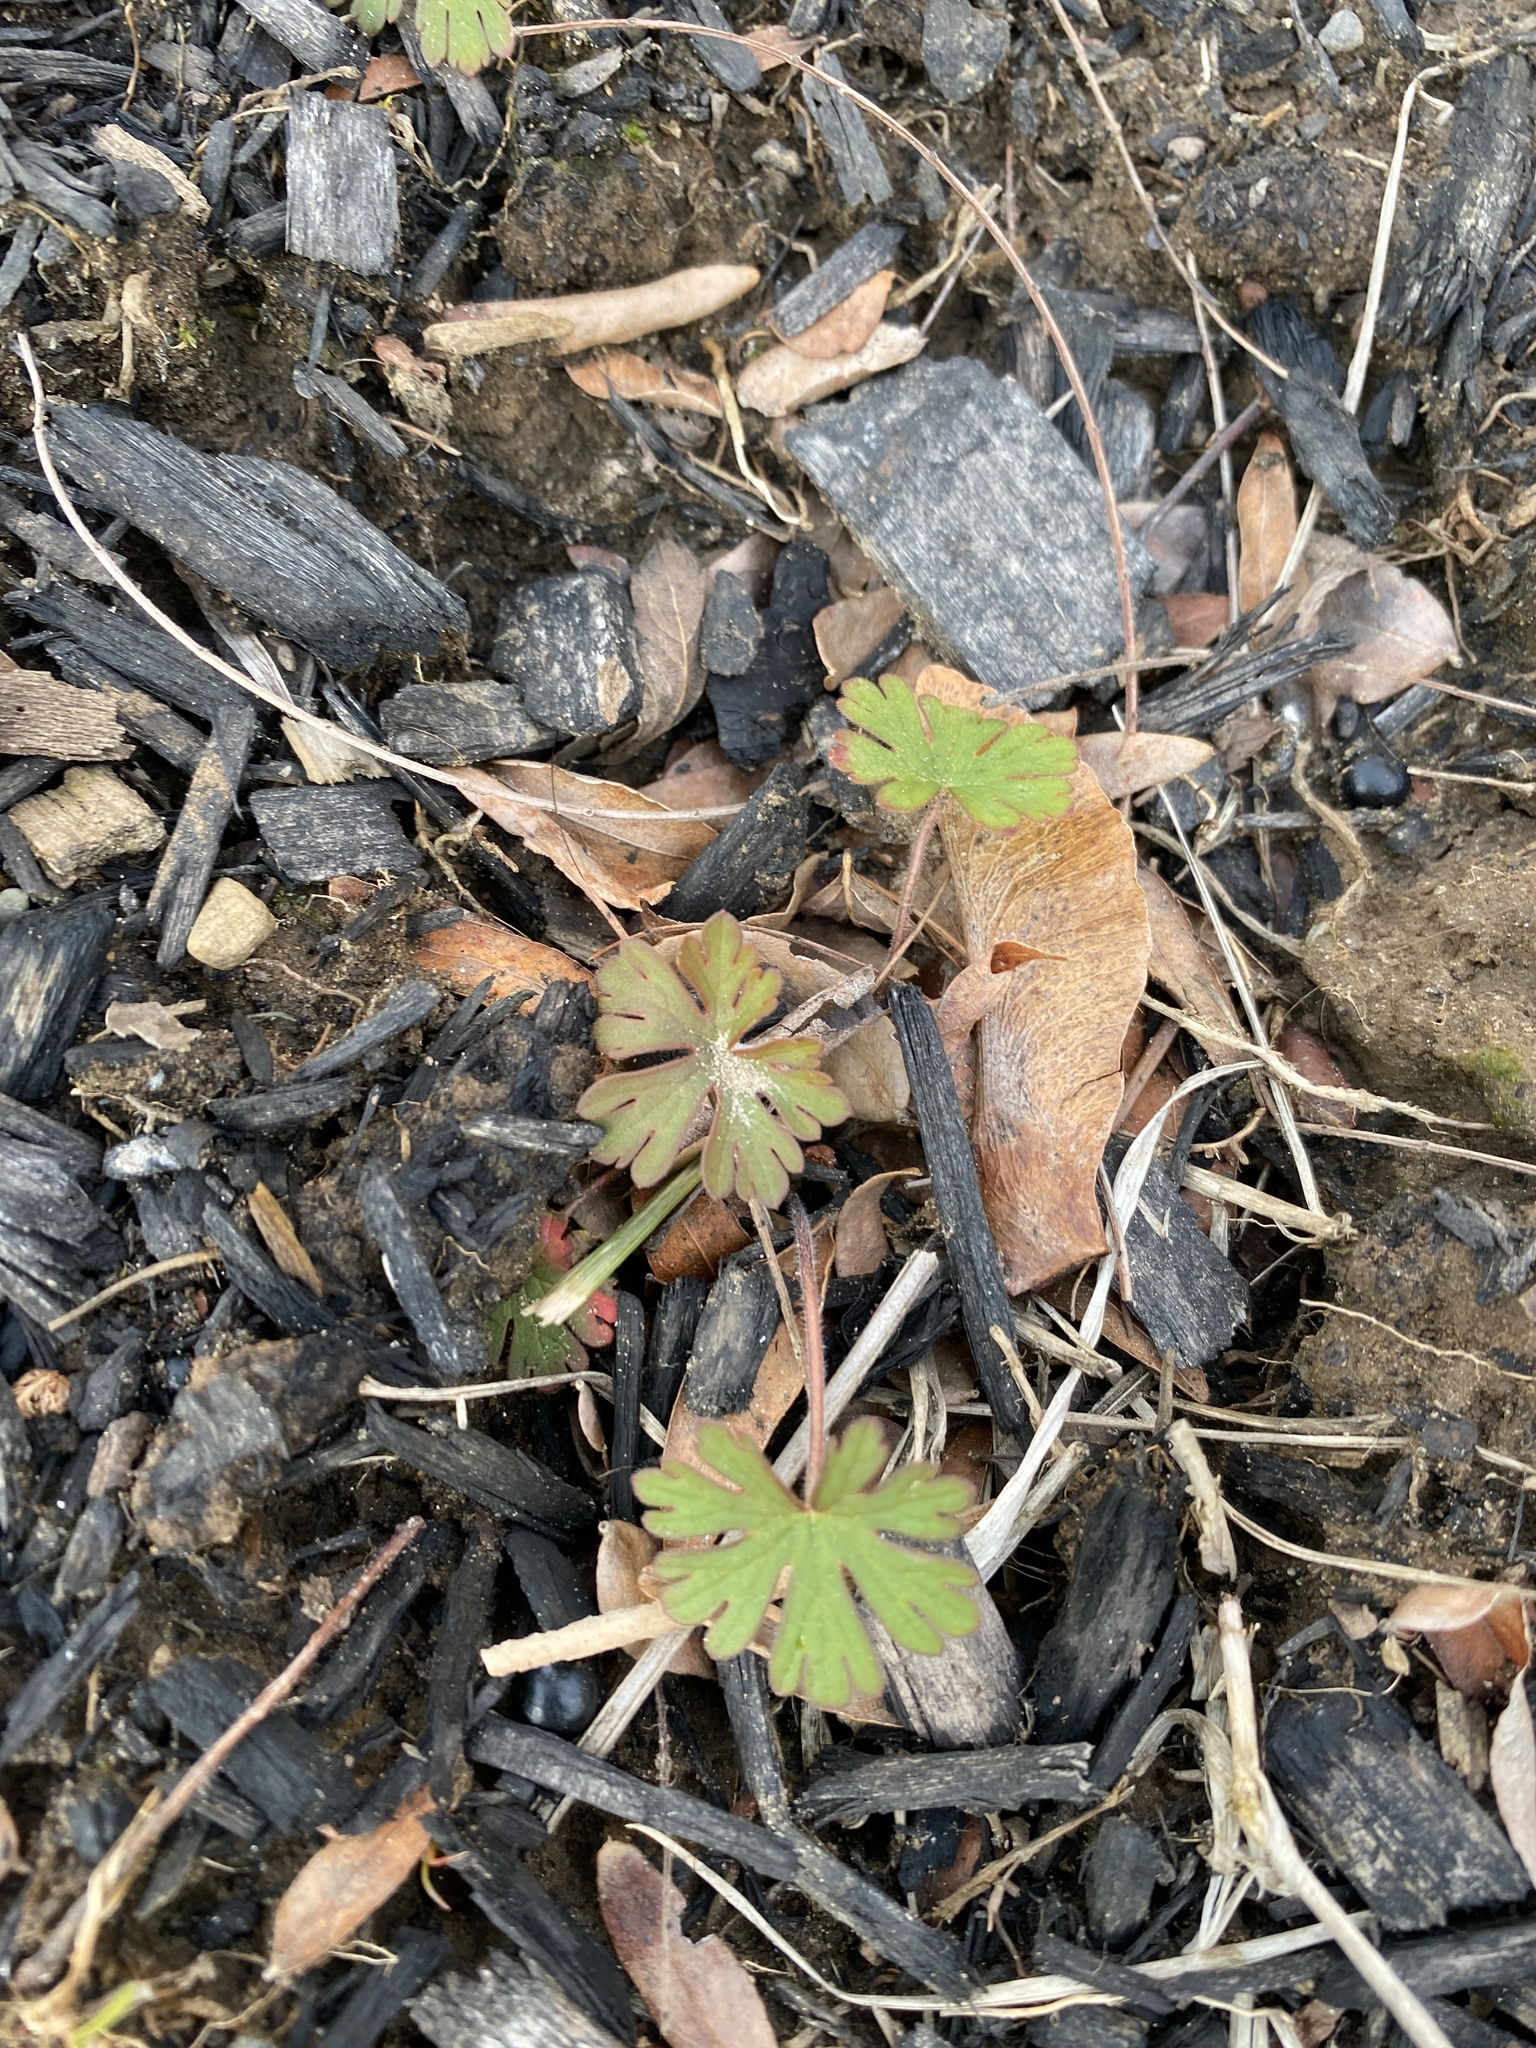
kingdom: Plantae
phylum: Tracheophyta
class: Magnoliopsida
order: Geraniales
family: Geraniaceae
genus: Geranium
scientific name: Geranium carolinianum
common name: Carolina crane's-bill
